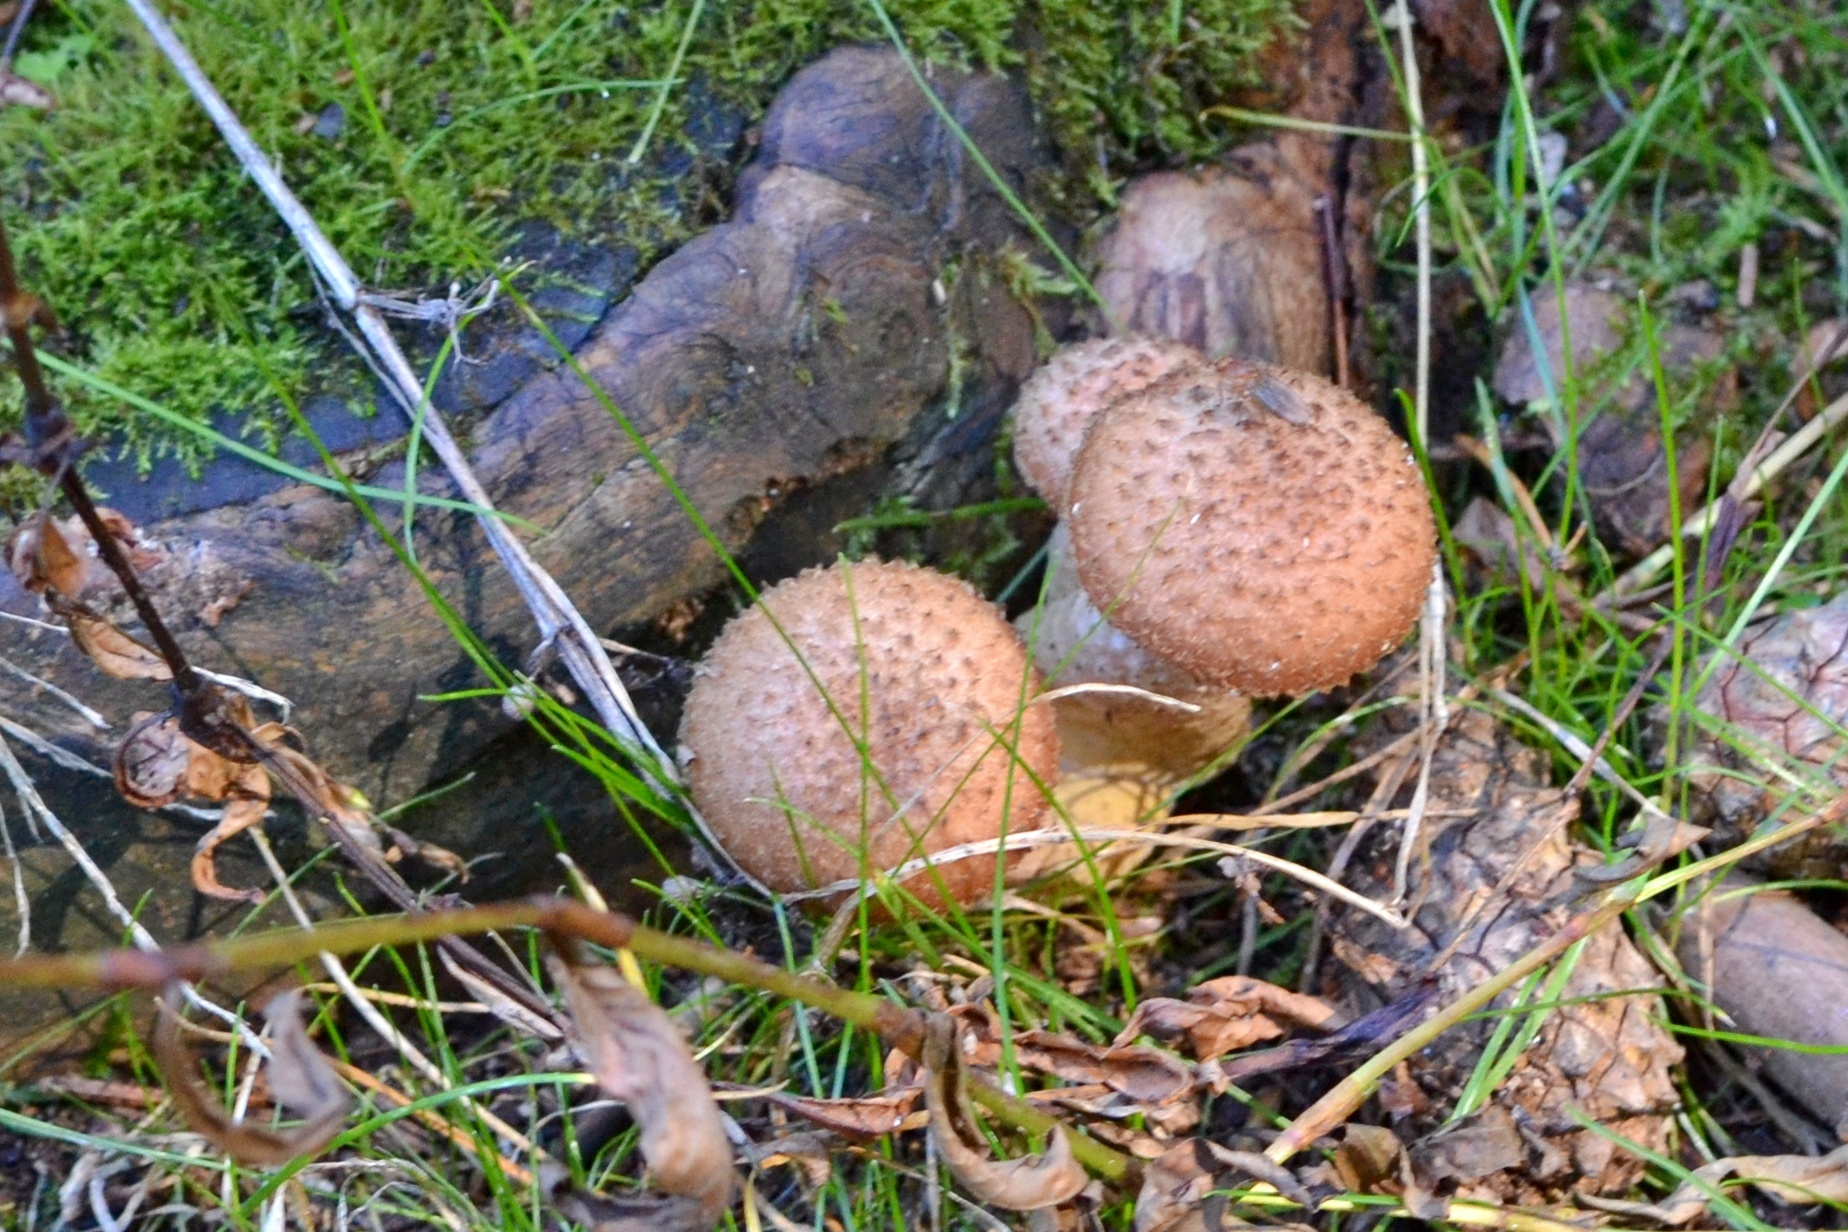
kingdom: Fungi
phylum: Basidiomycota
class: Agaricomycetes
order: Agaricales
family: Physalacriaceae
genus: Armillaria
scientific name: Armillaria ostoyae
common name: Dark honey fungus
